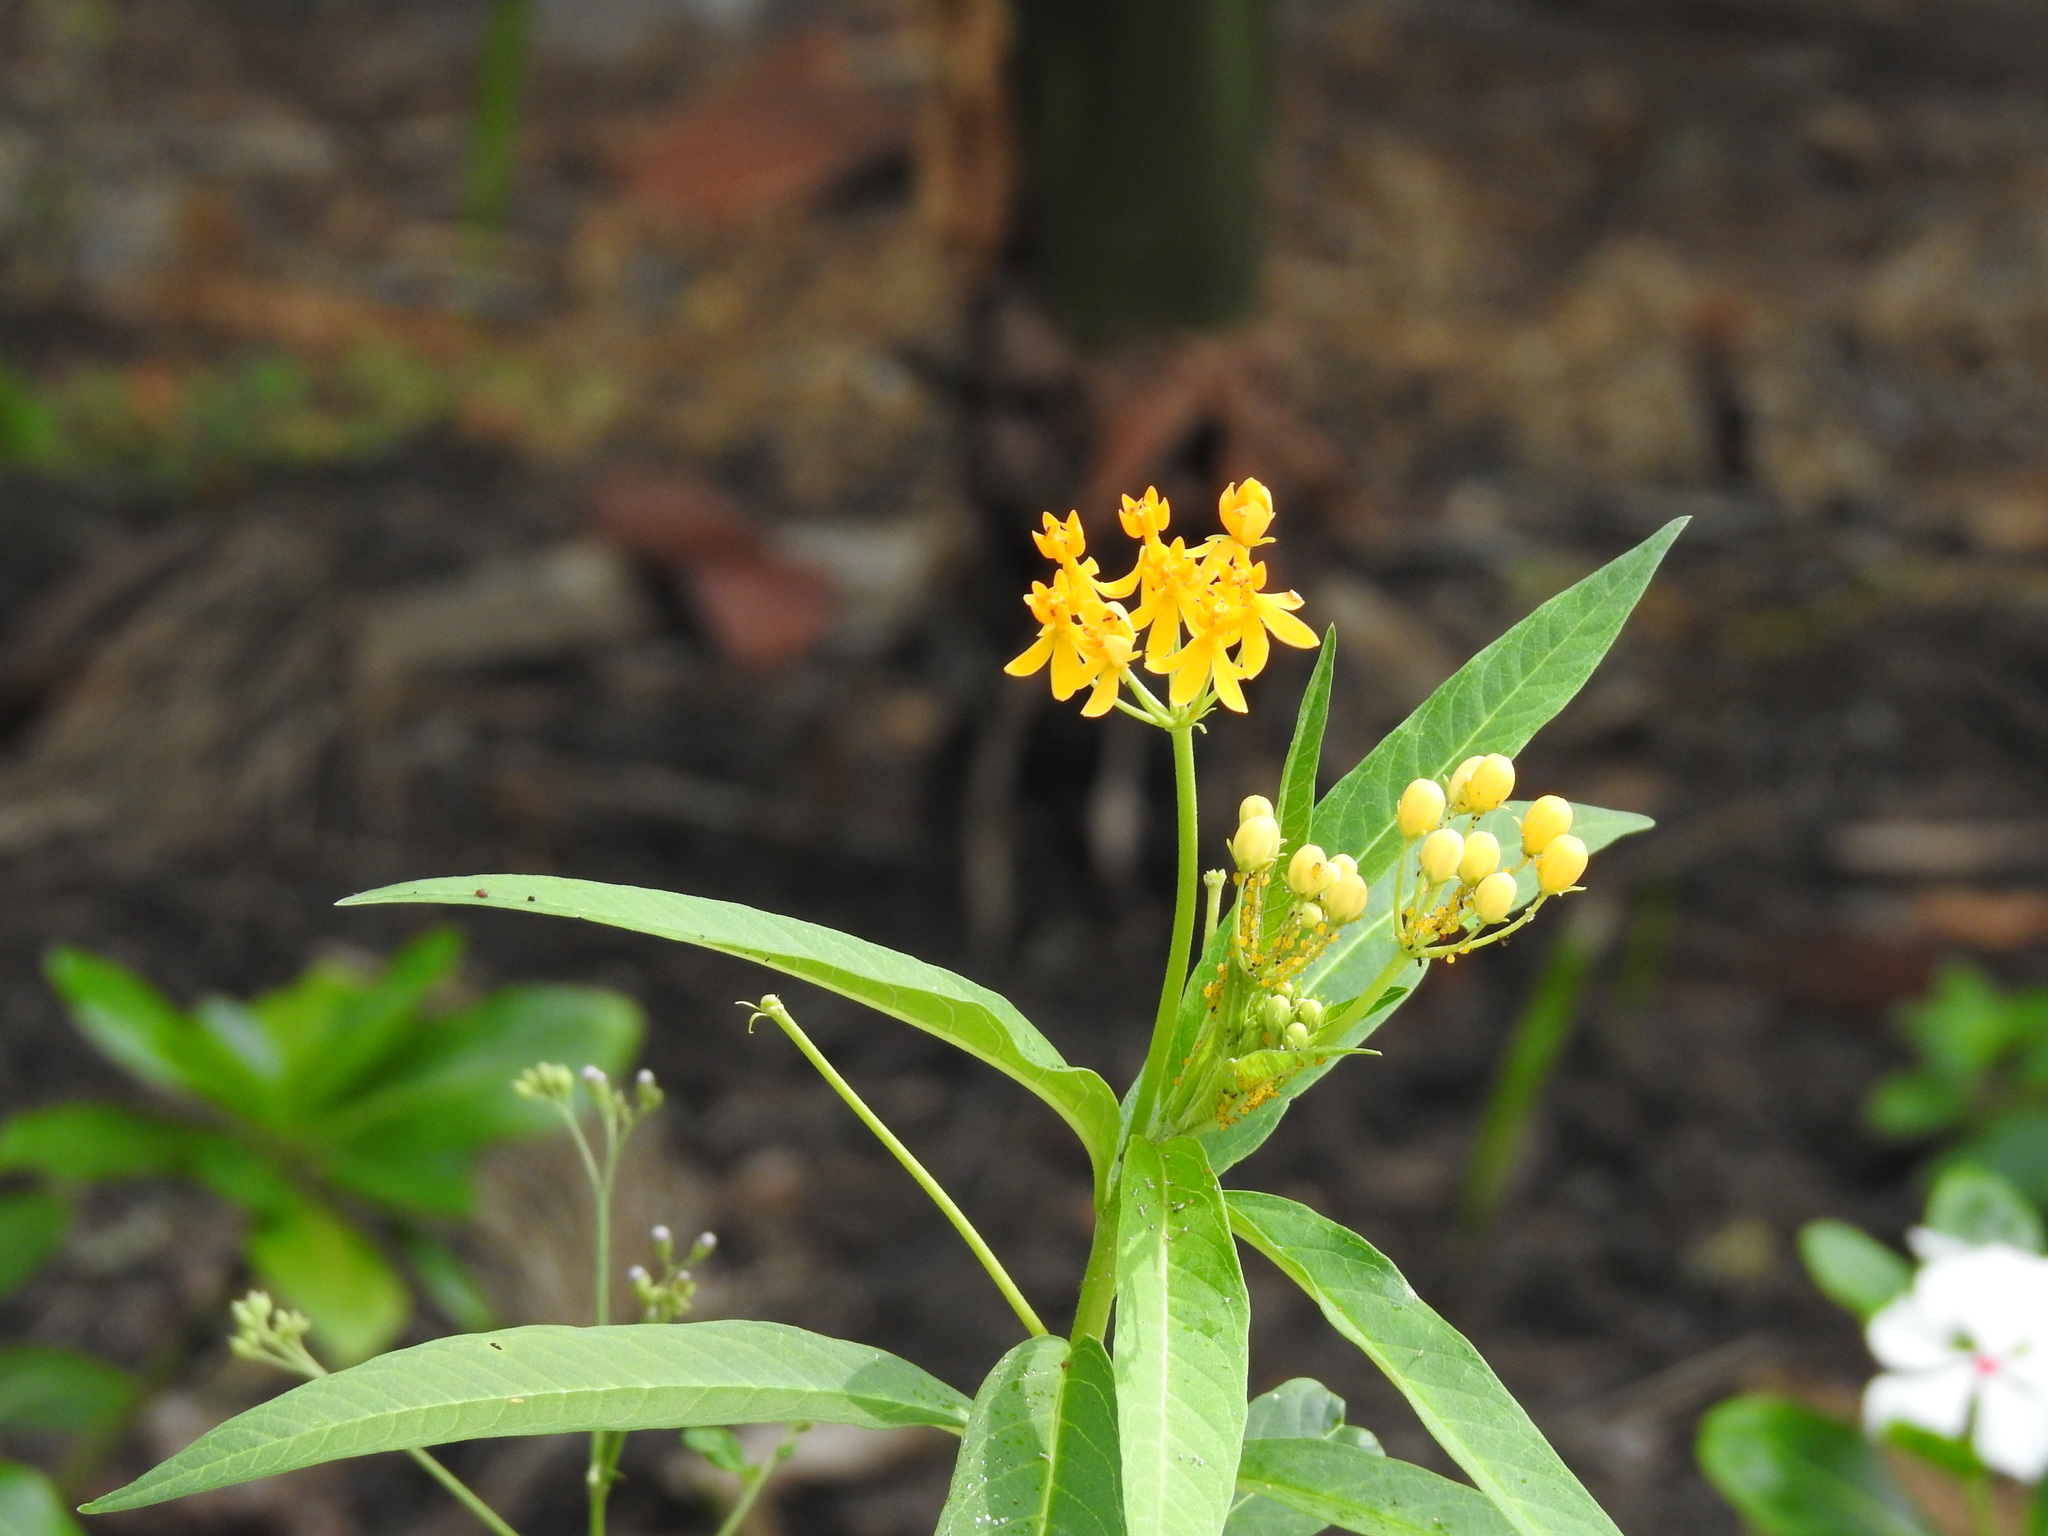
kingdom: Plantae
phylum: Tracheophyta
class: Magnoliopsida
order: Gentianales
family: Apocynaceae
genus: Asclepias
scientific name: Asclepias curassavica
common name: Bloodflower
